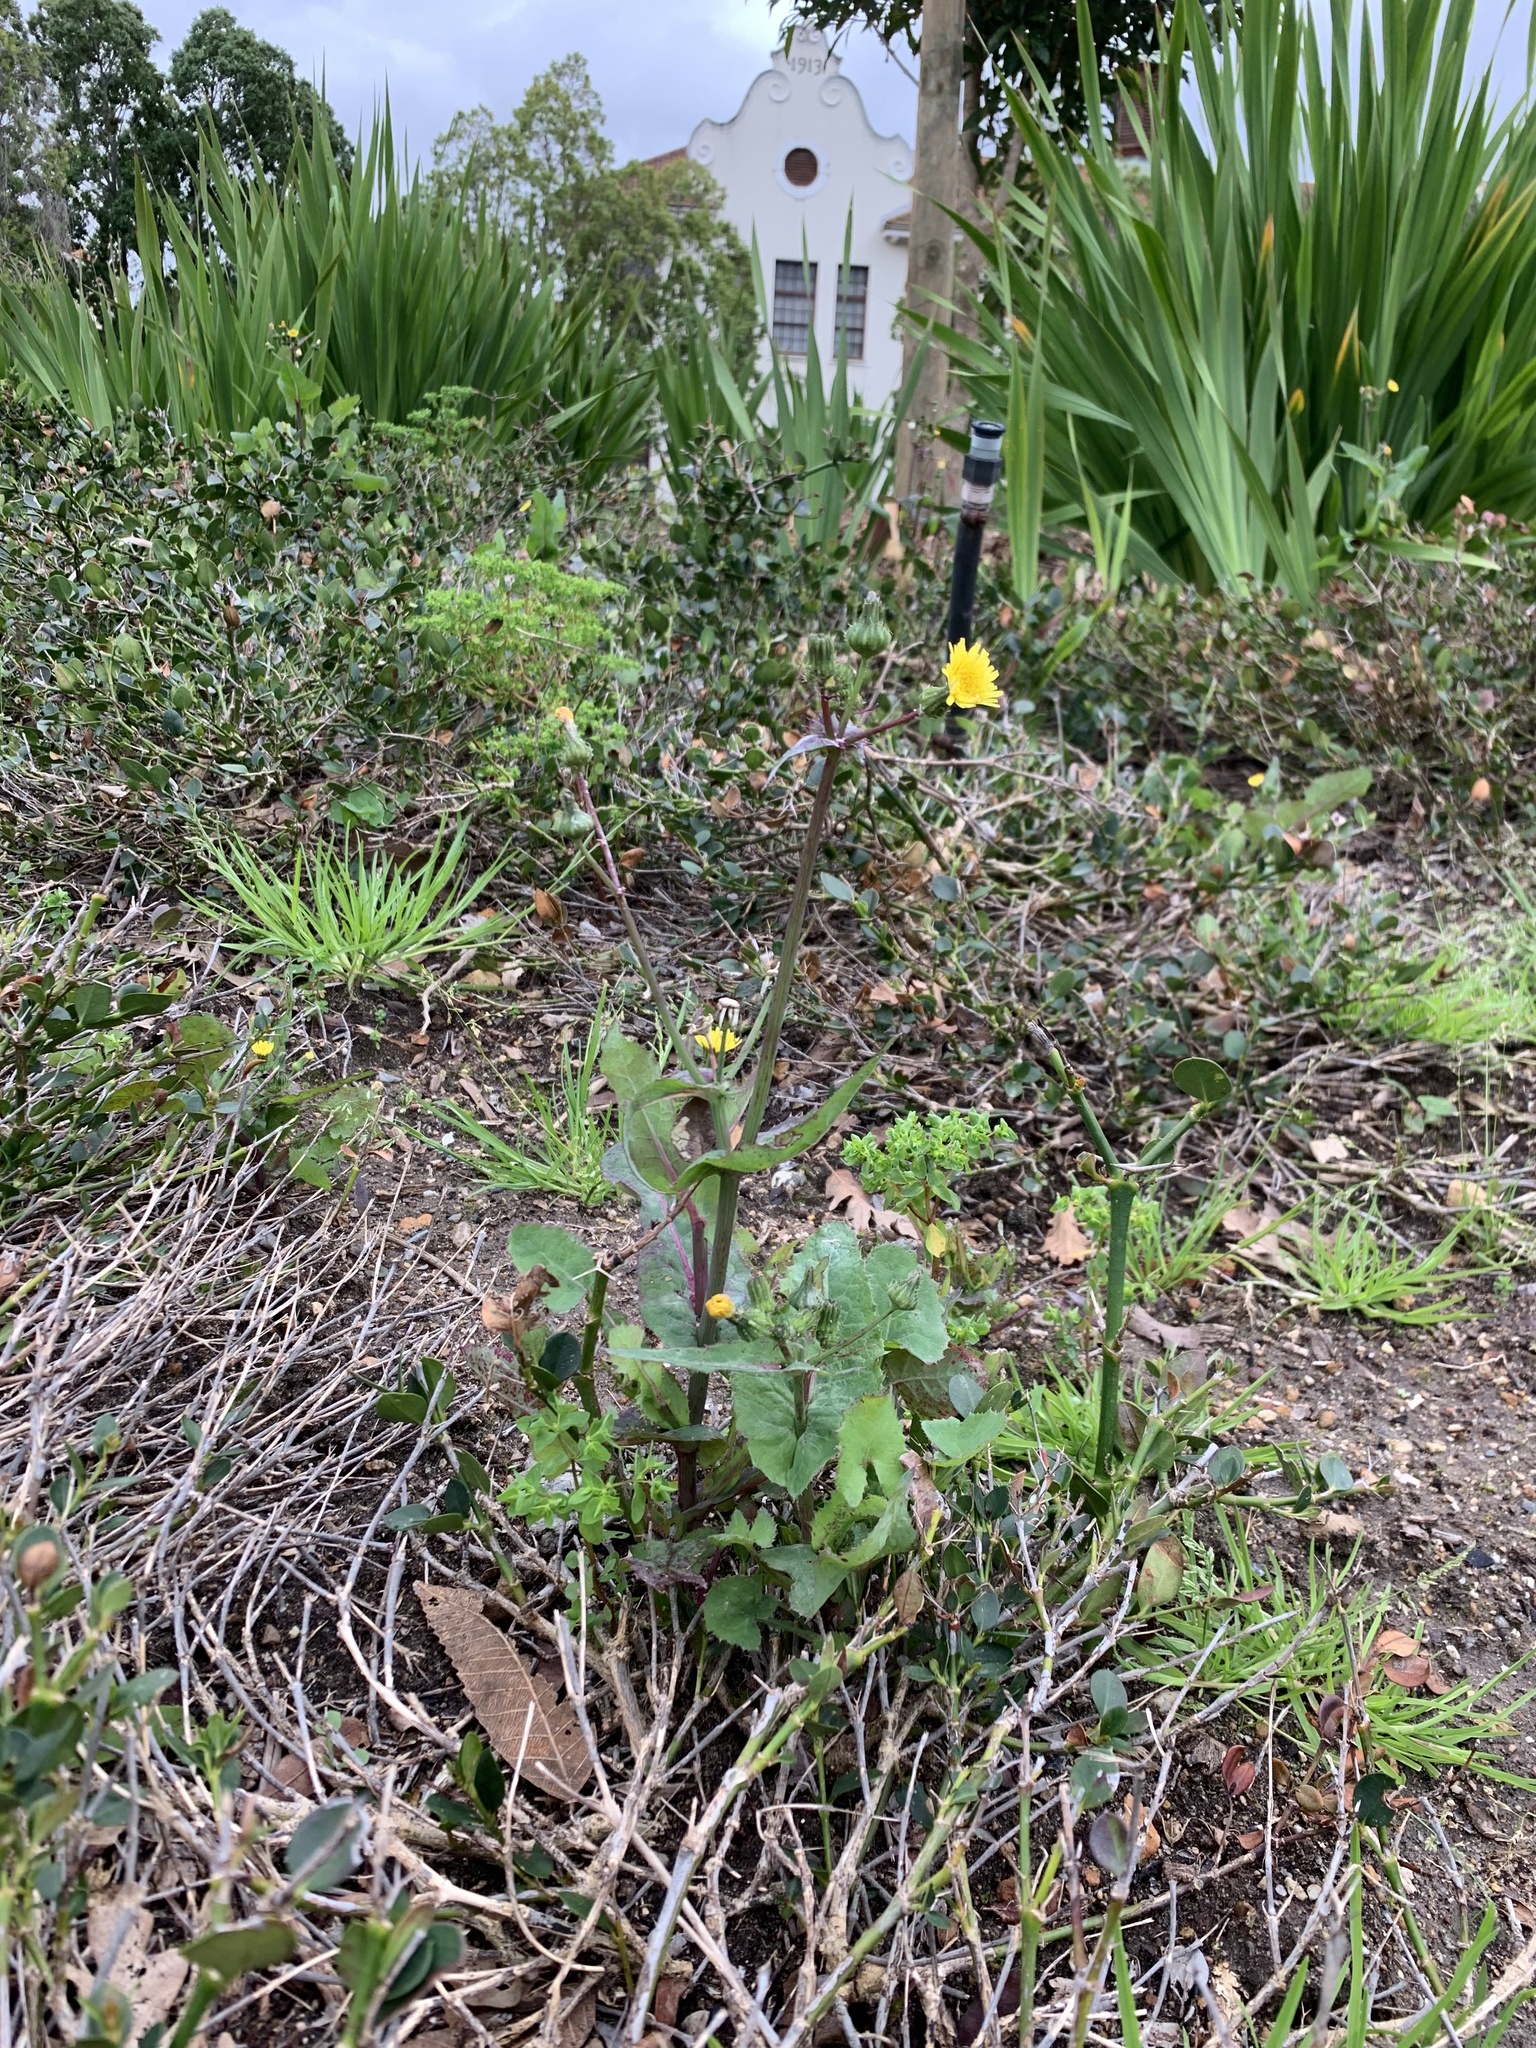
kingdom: Plantae
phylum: Tracheophyta
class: Magnoliopsida
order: Asterales
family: Asteraceae
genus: Sonchus
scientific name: Sonchus oleraceus
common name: Common sowthistle
